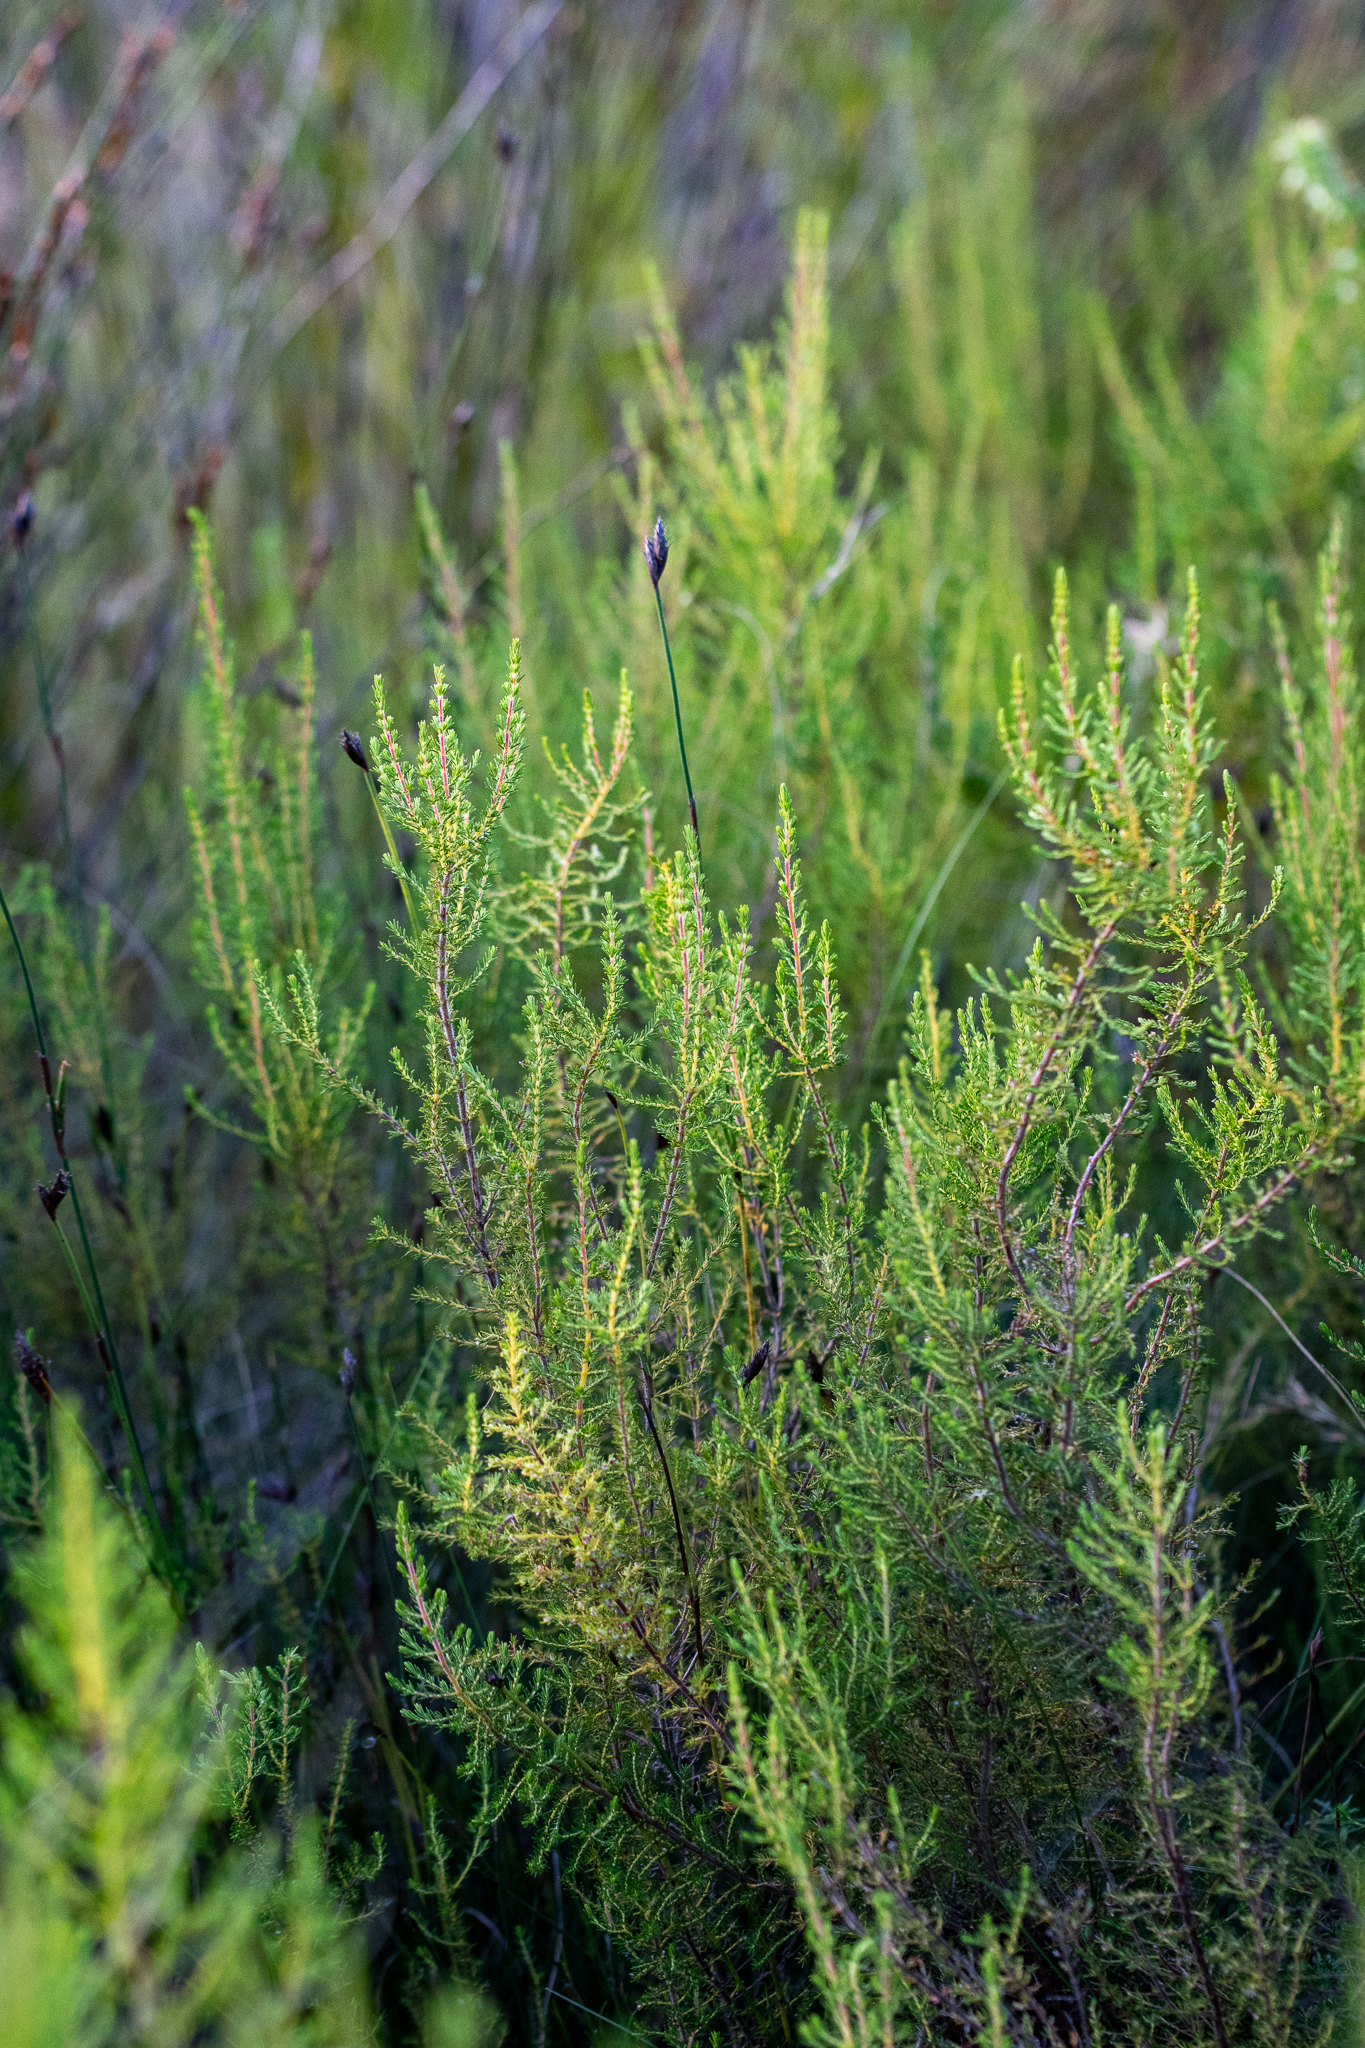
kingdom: Plantae
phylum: Tracheophyta
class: Magnoliopsida
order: Ericales
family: Ericaceae
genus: Erica
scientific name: Erica muscosa
